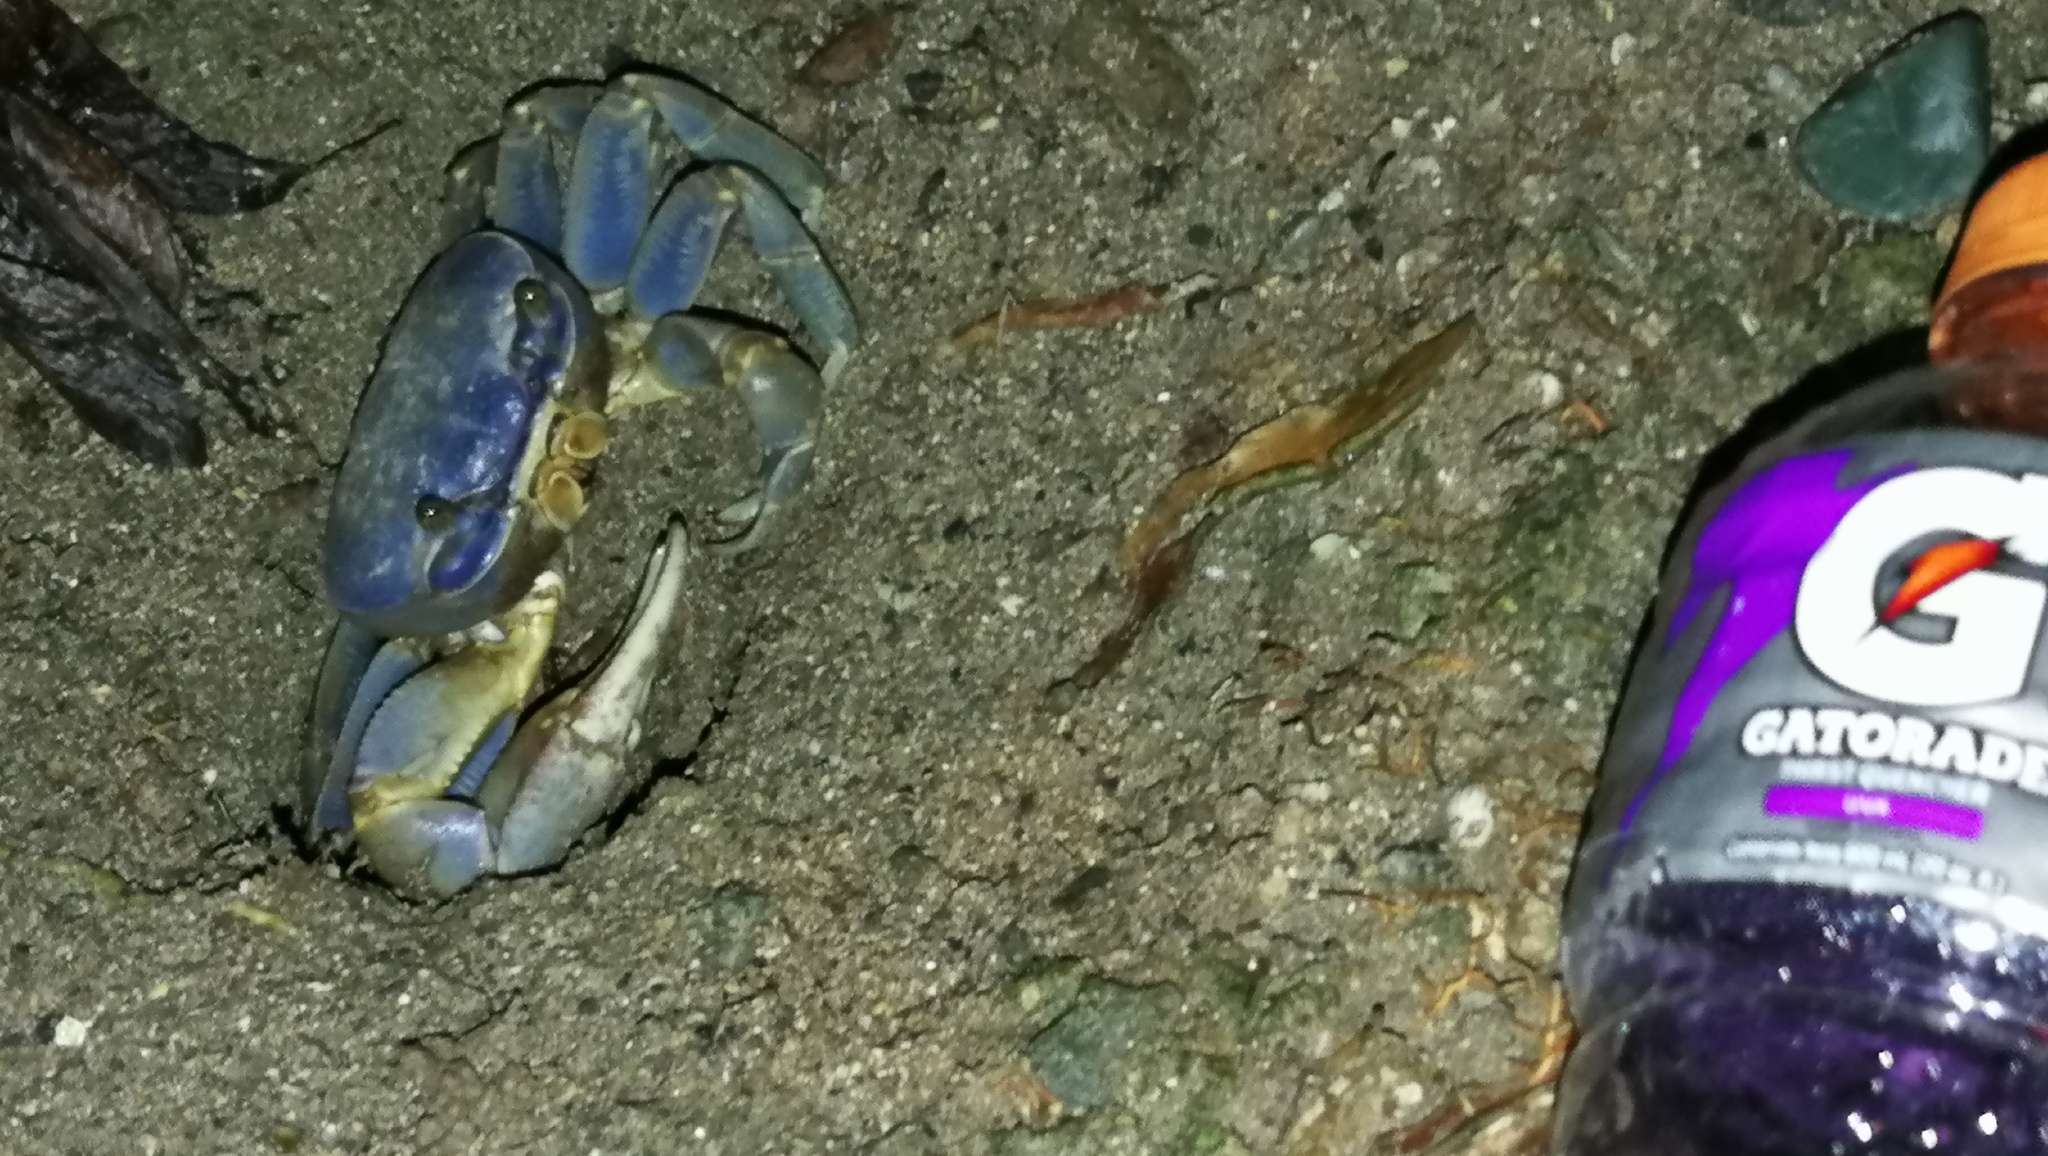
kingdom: Animalia
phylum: Arthropoda
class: Malacostraca
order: Decapoda
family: Gecarcinidae
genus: Cardisoma
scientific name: Cardisoma guanhumi
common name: Great land crab
